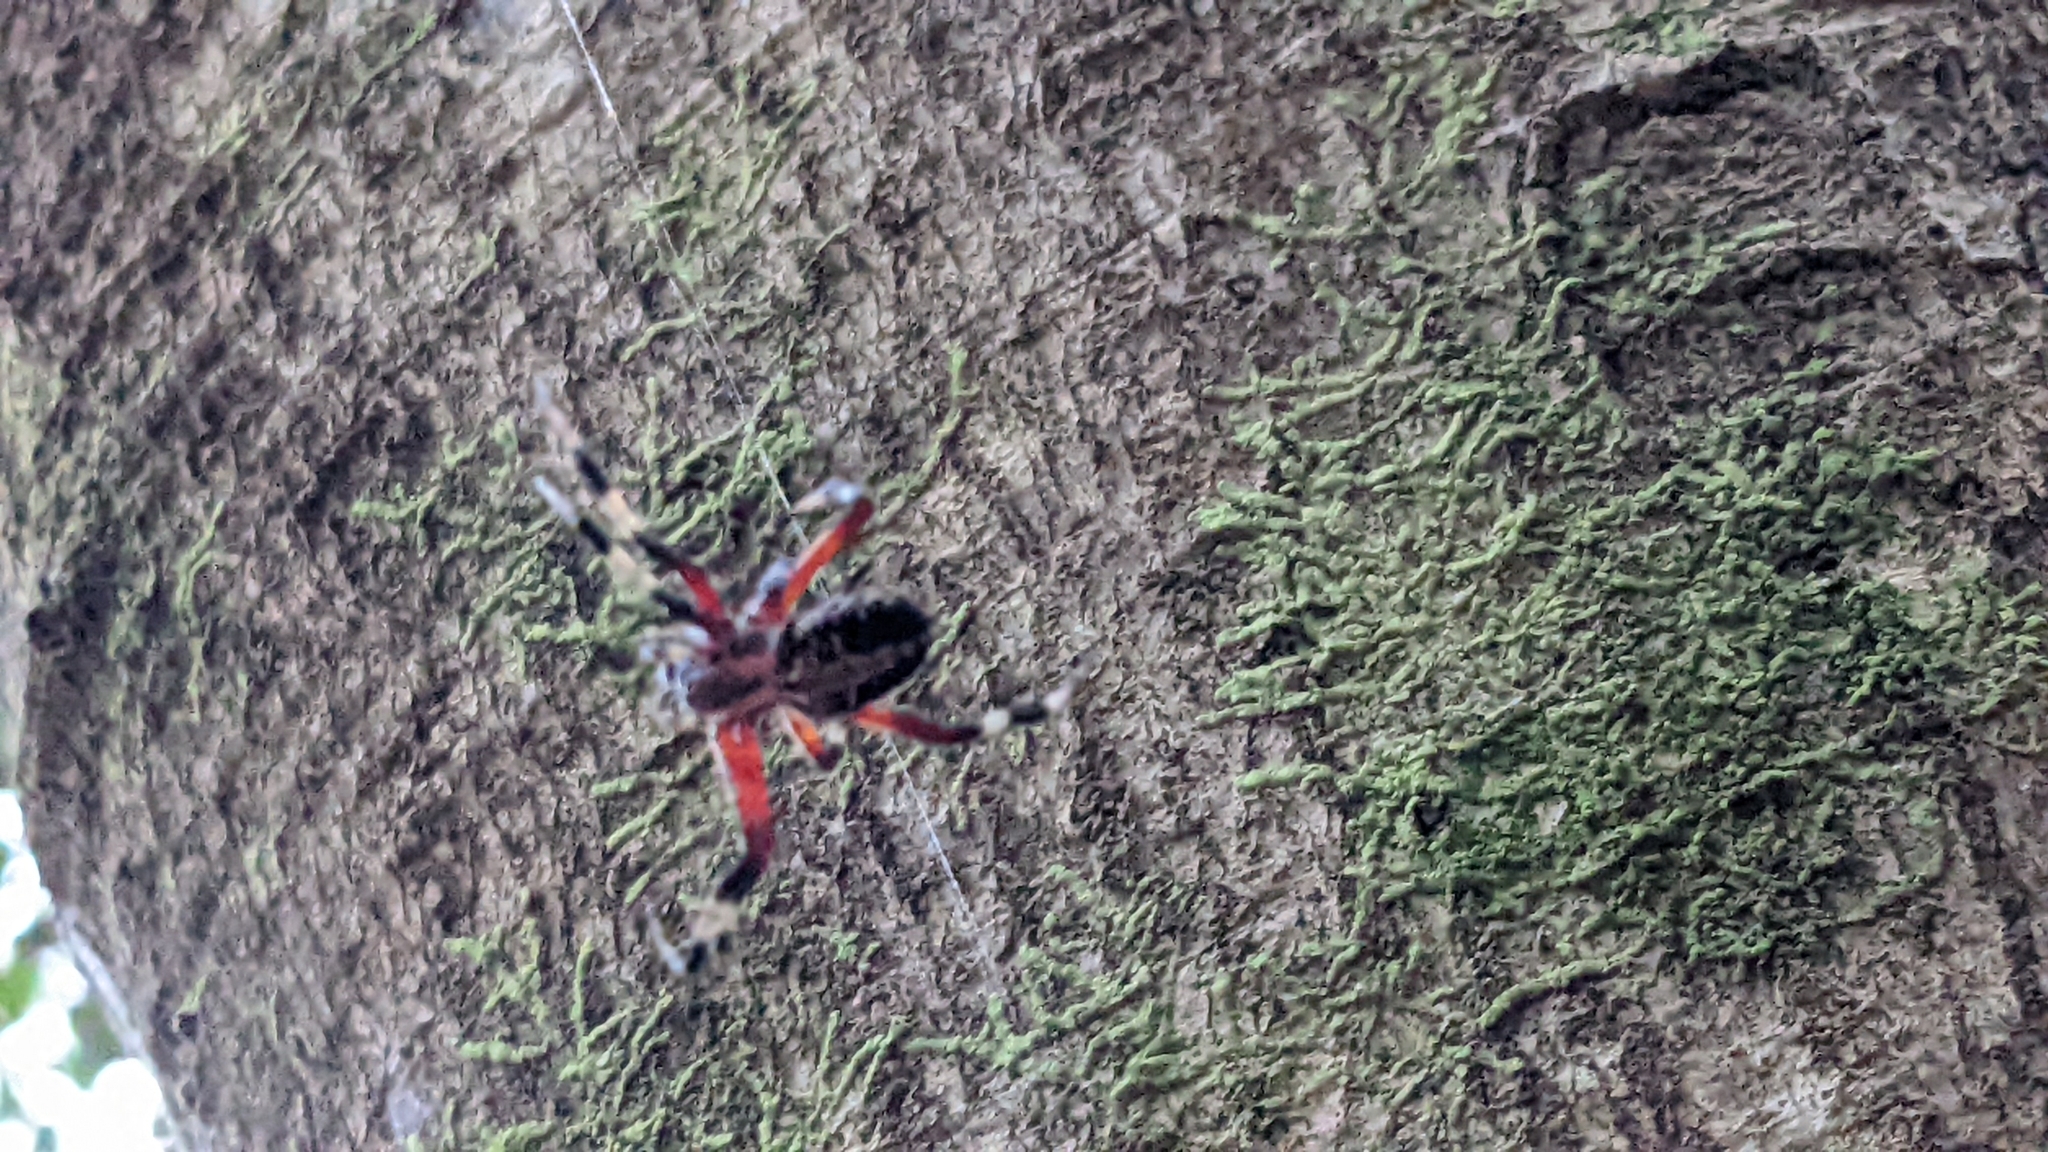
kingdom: Animalia
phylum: Arthropoda
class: Arachnida
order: Araneae
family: Araneidae
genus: Neoscona
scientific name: Neoscona domiciliorum
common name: Red-femured spotted orbweaver
